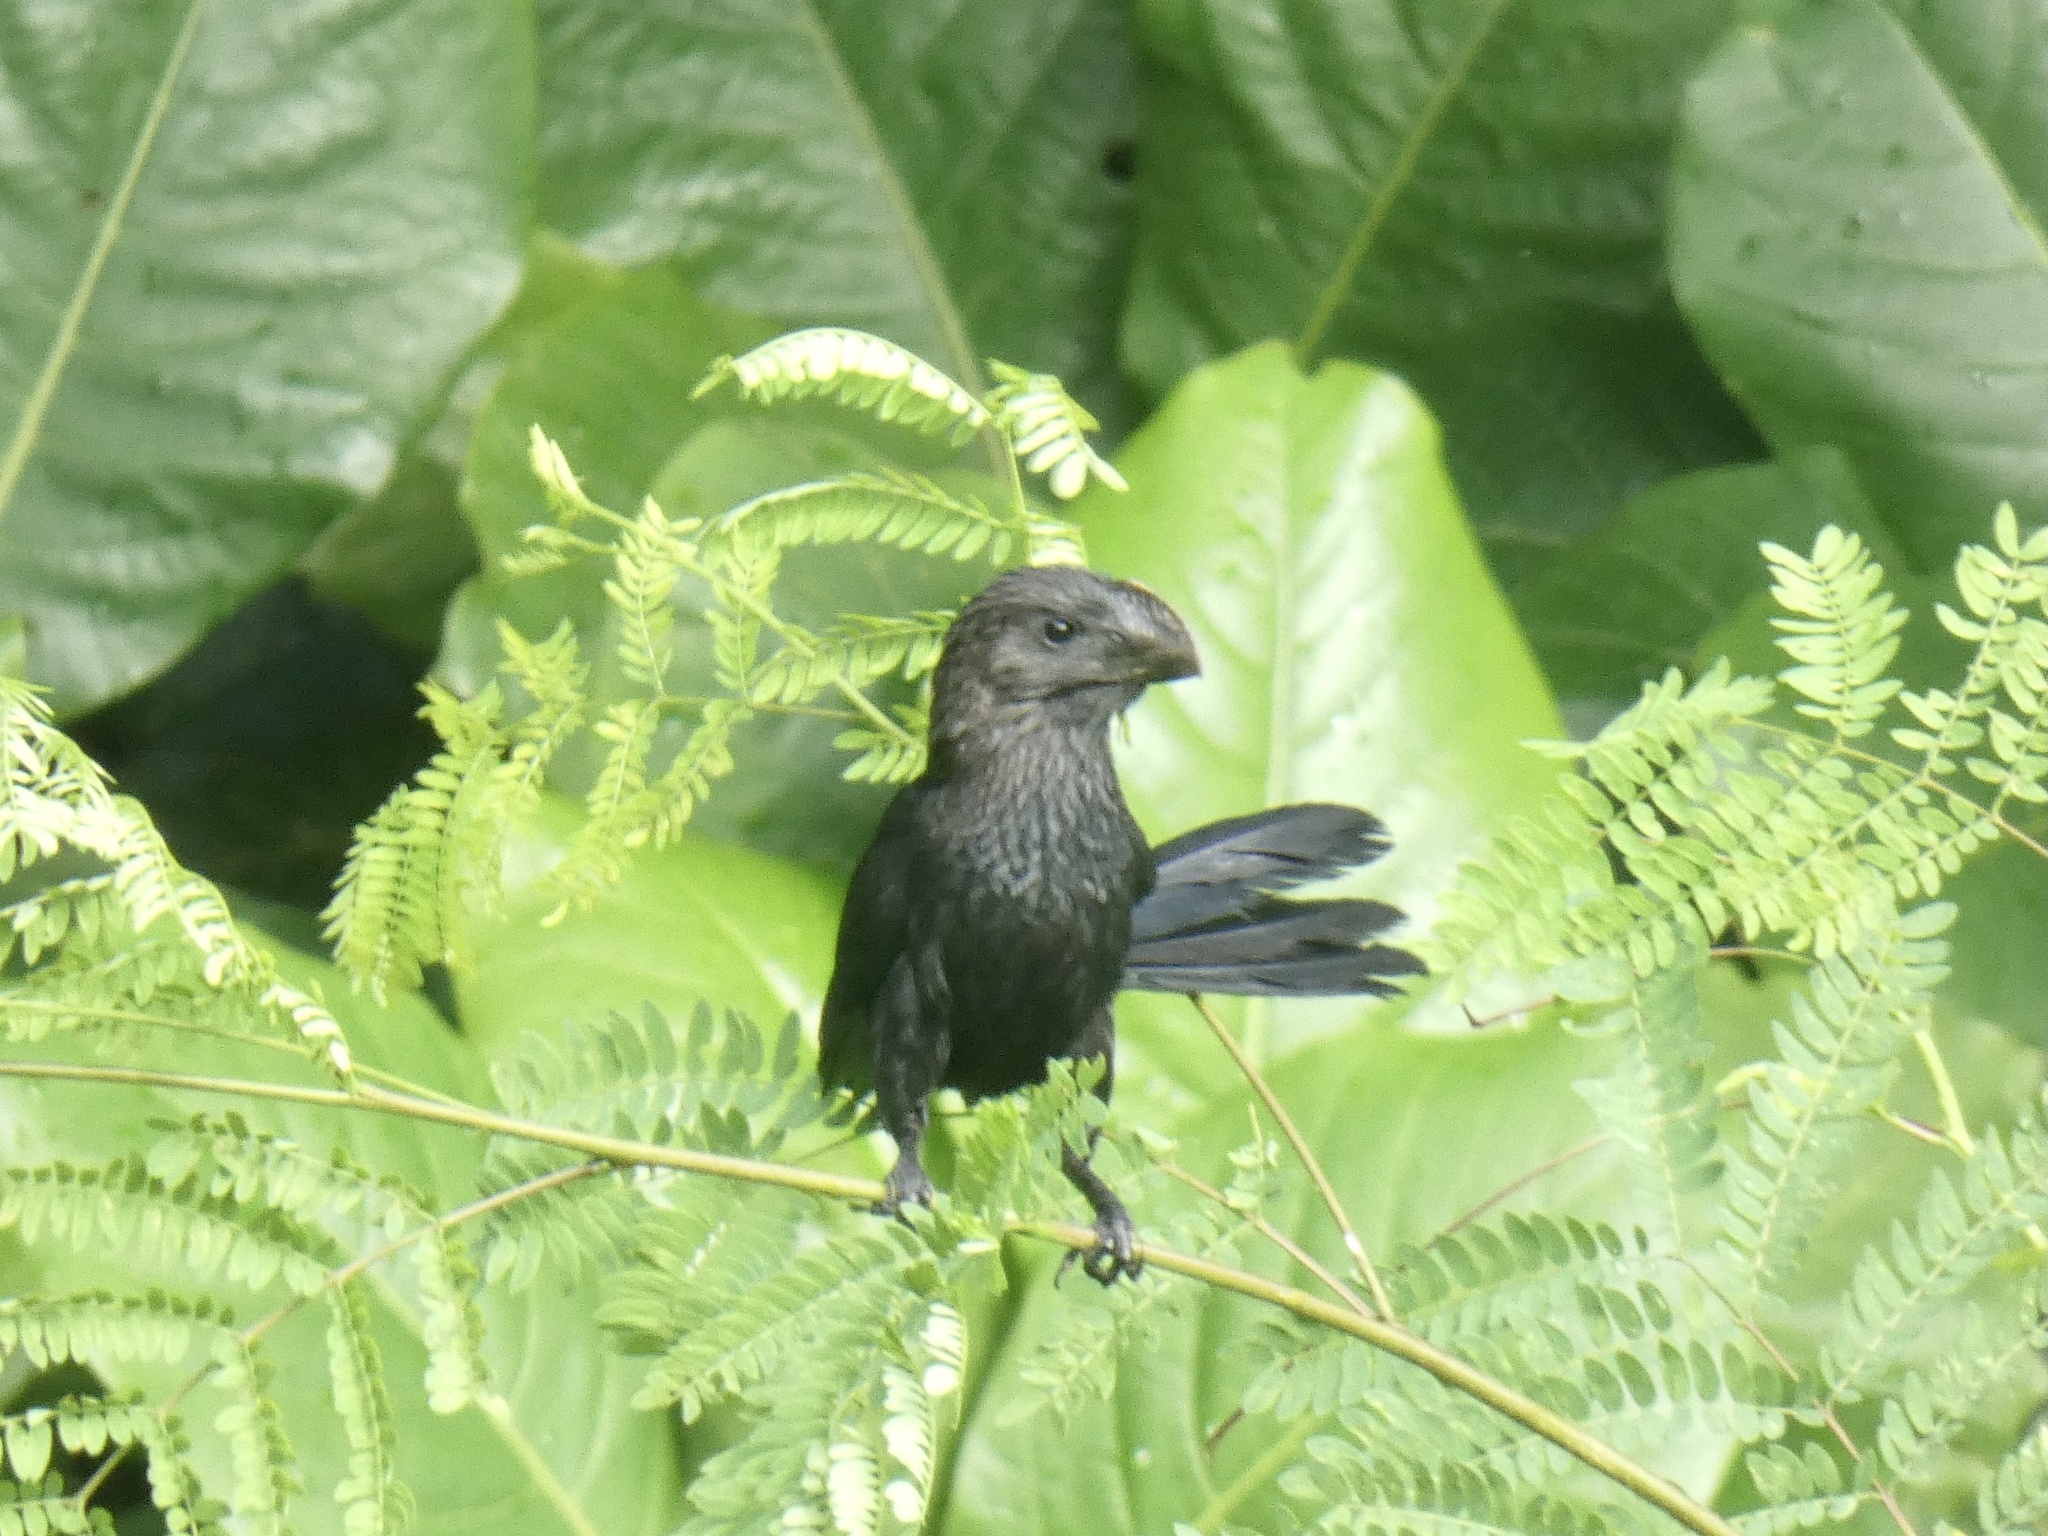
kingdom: Animalia
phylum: Chordata
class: Aves
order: Cuculiformes
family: Cuculidae
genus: Crotophaga
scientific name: Crotophaga ani
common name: Smooth-billed ani
